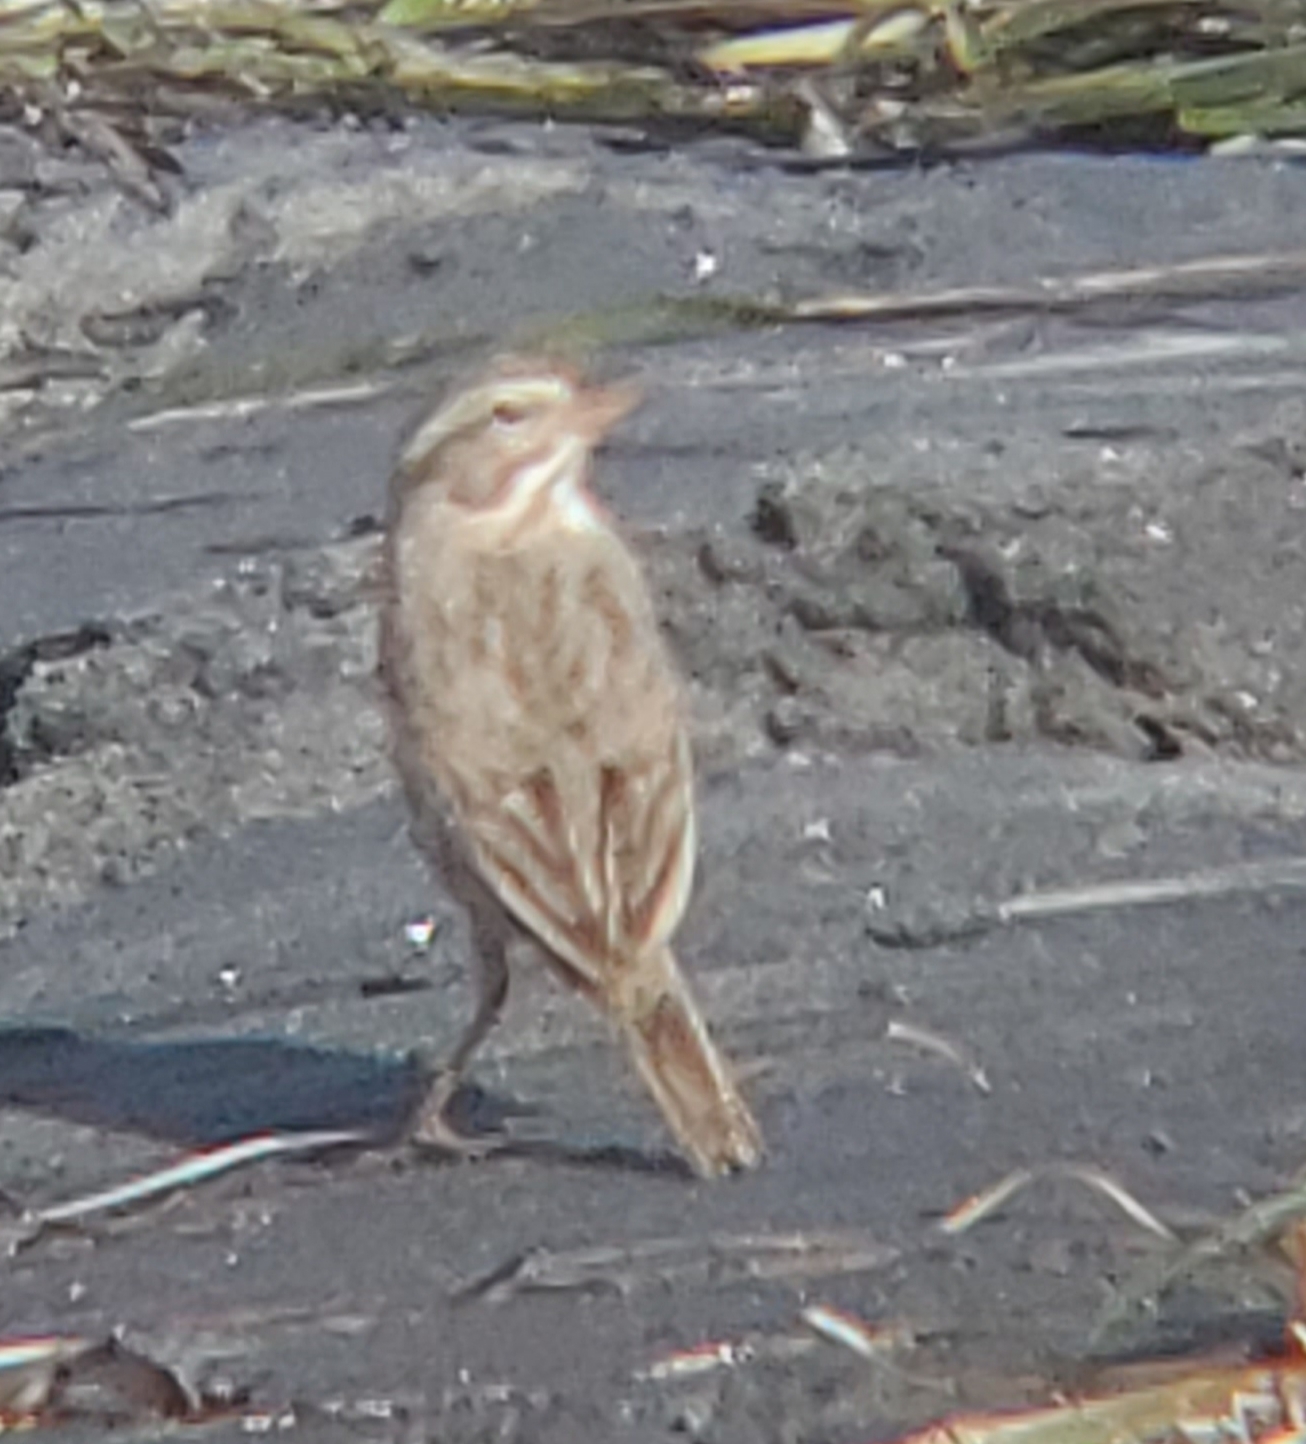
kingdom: Animalia
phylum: Chordata
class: Aves
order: Passeriformes
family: Passerellidae
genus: Passerculus
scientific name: Passerculus sandwichensis
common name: Savannah sparrow
